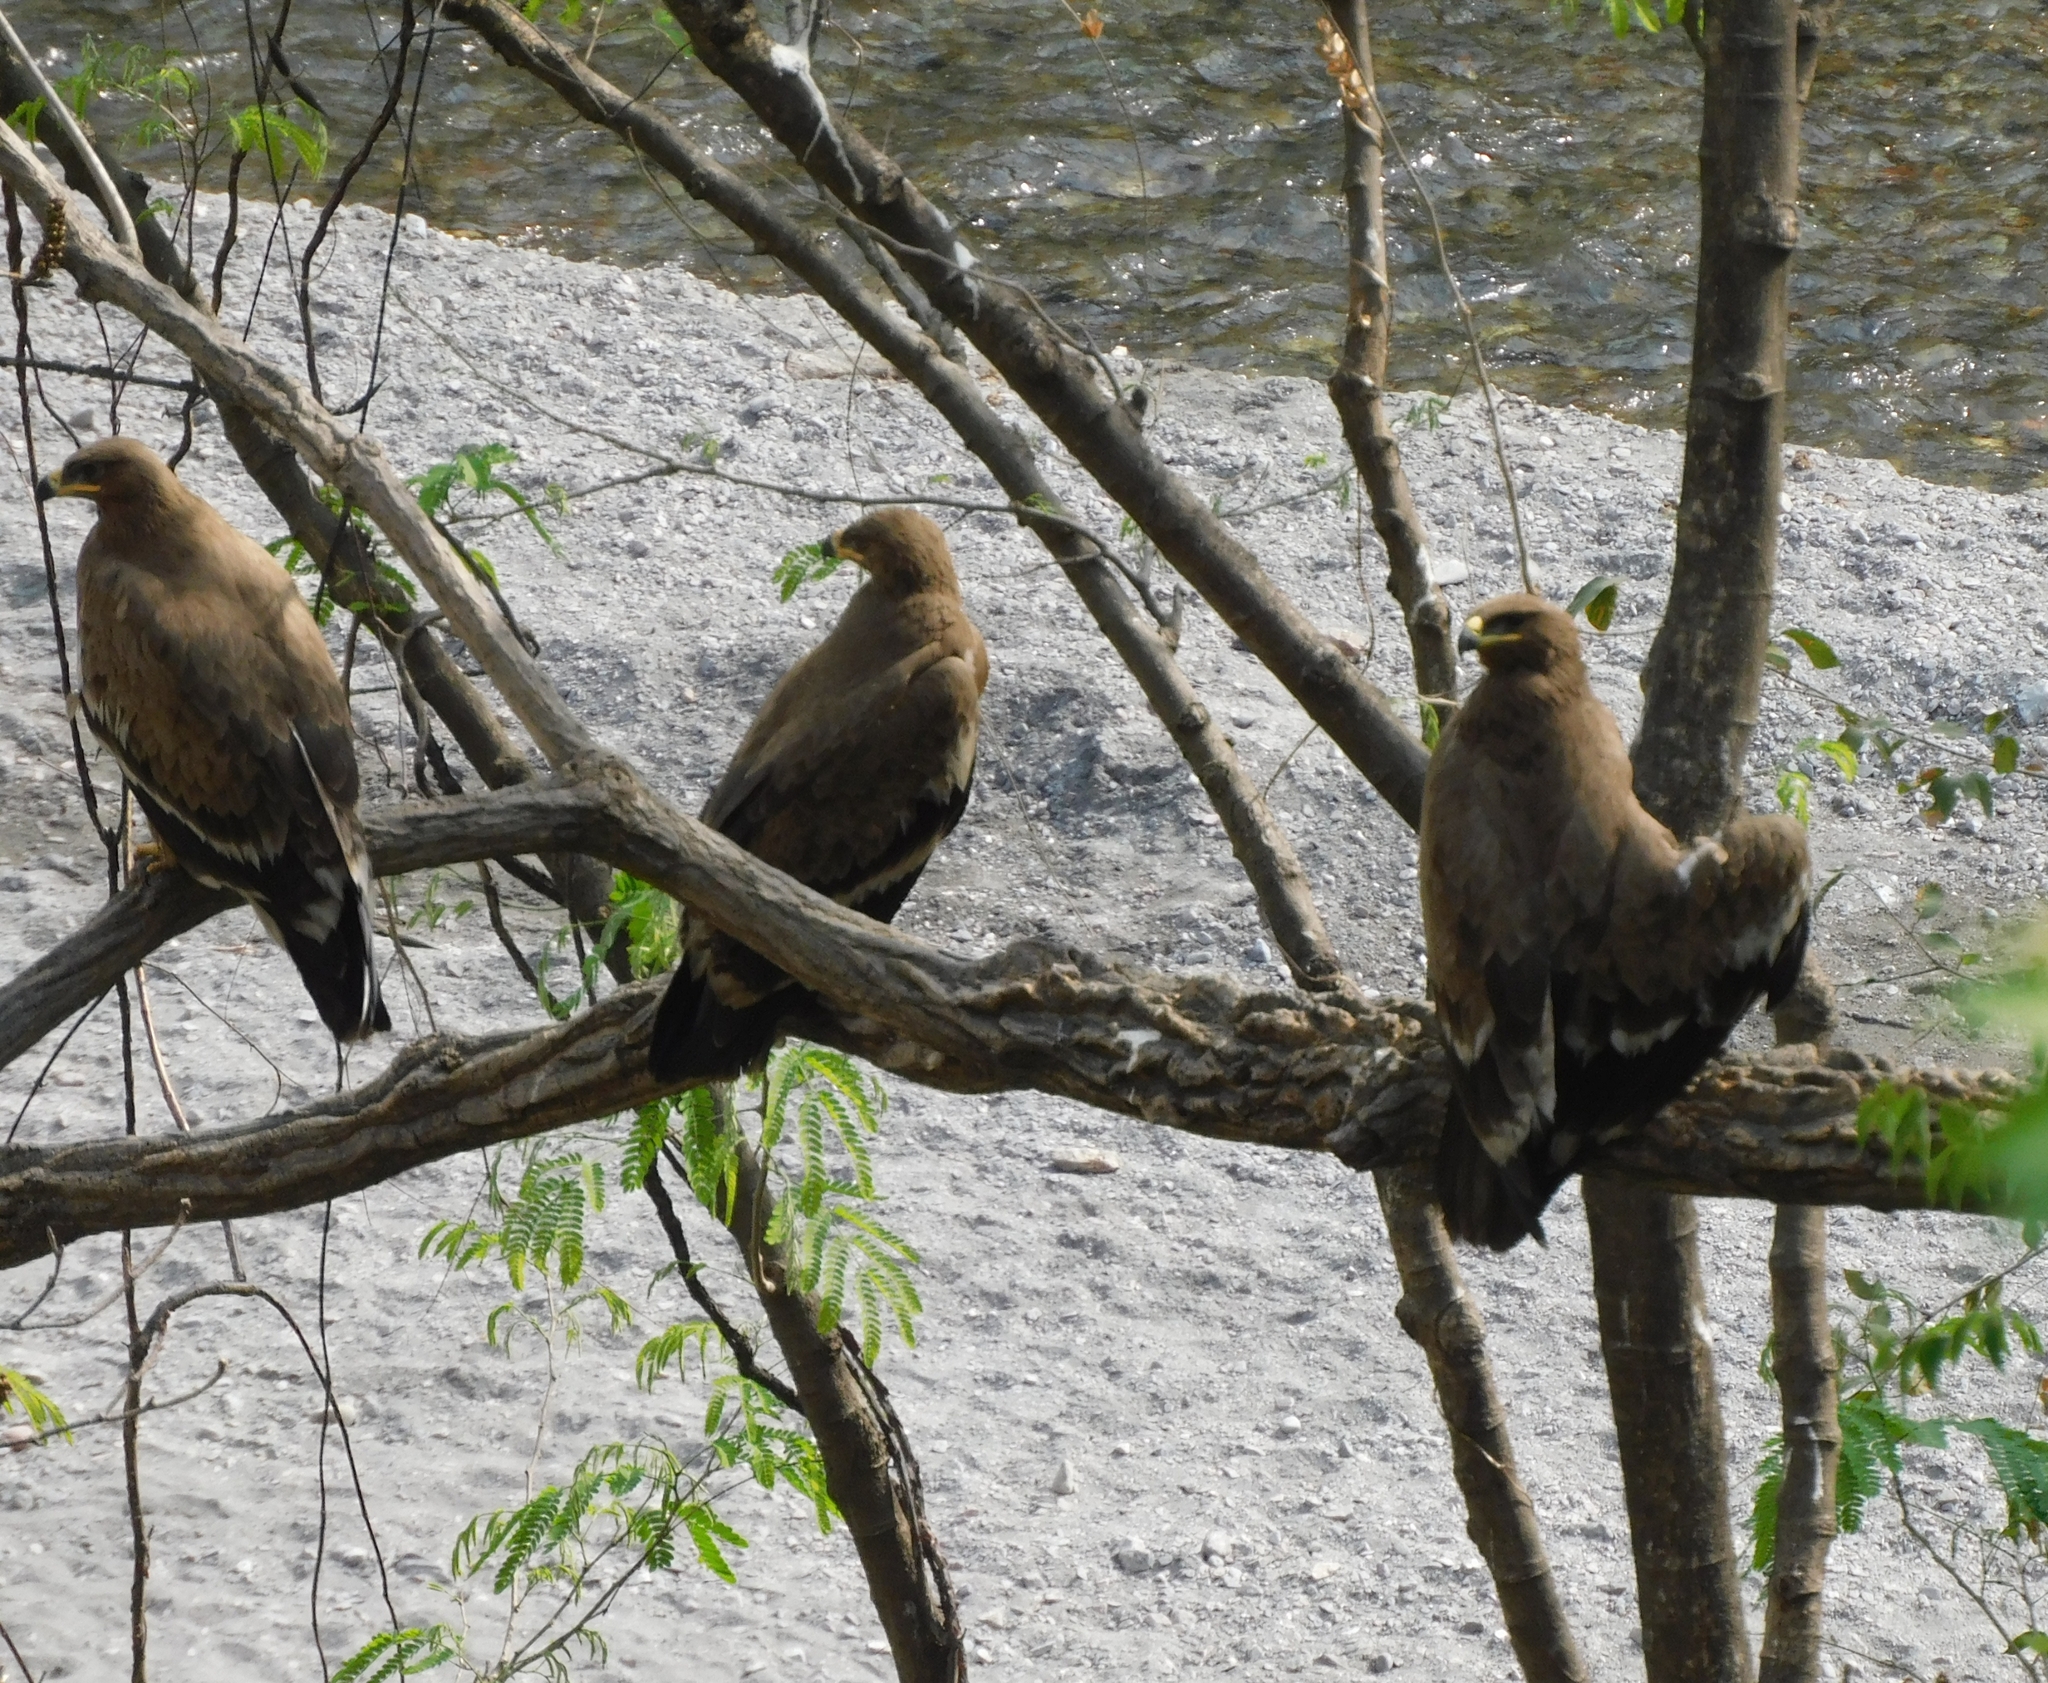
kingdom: Animalia
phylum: Chordata
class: Aves
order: Accipitriformes
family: Accipitridae
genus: Aquila
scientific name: Aquila nipalensis
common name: Steppe eagle
